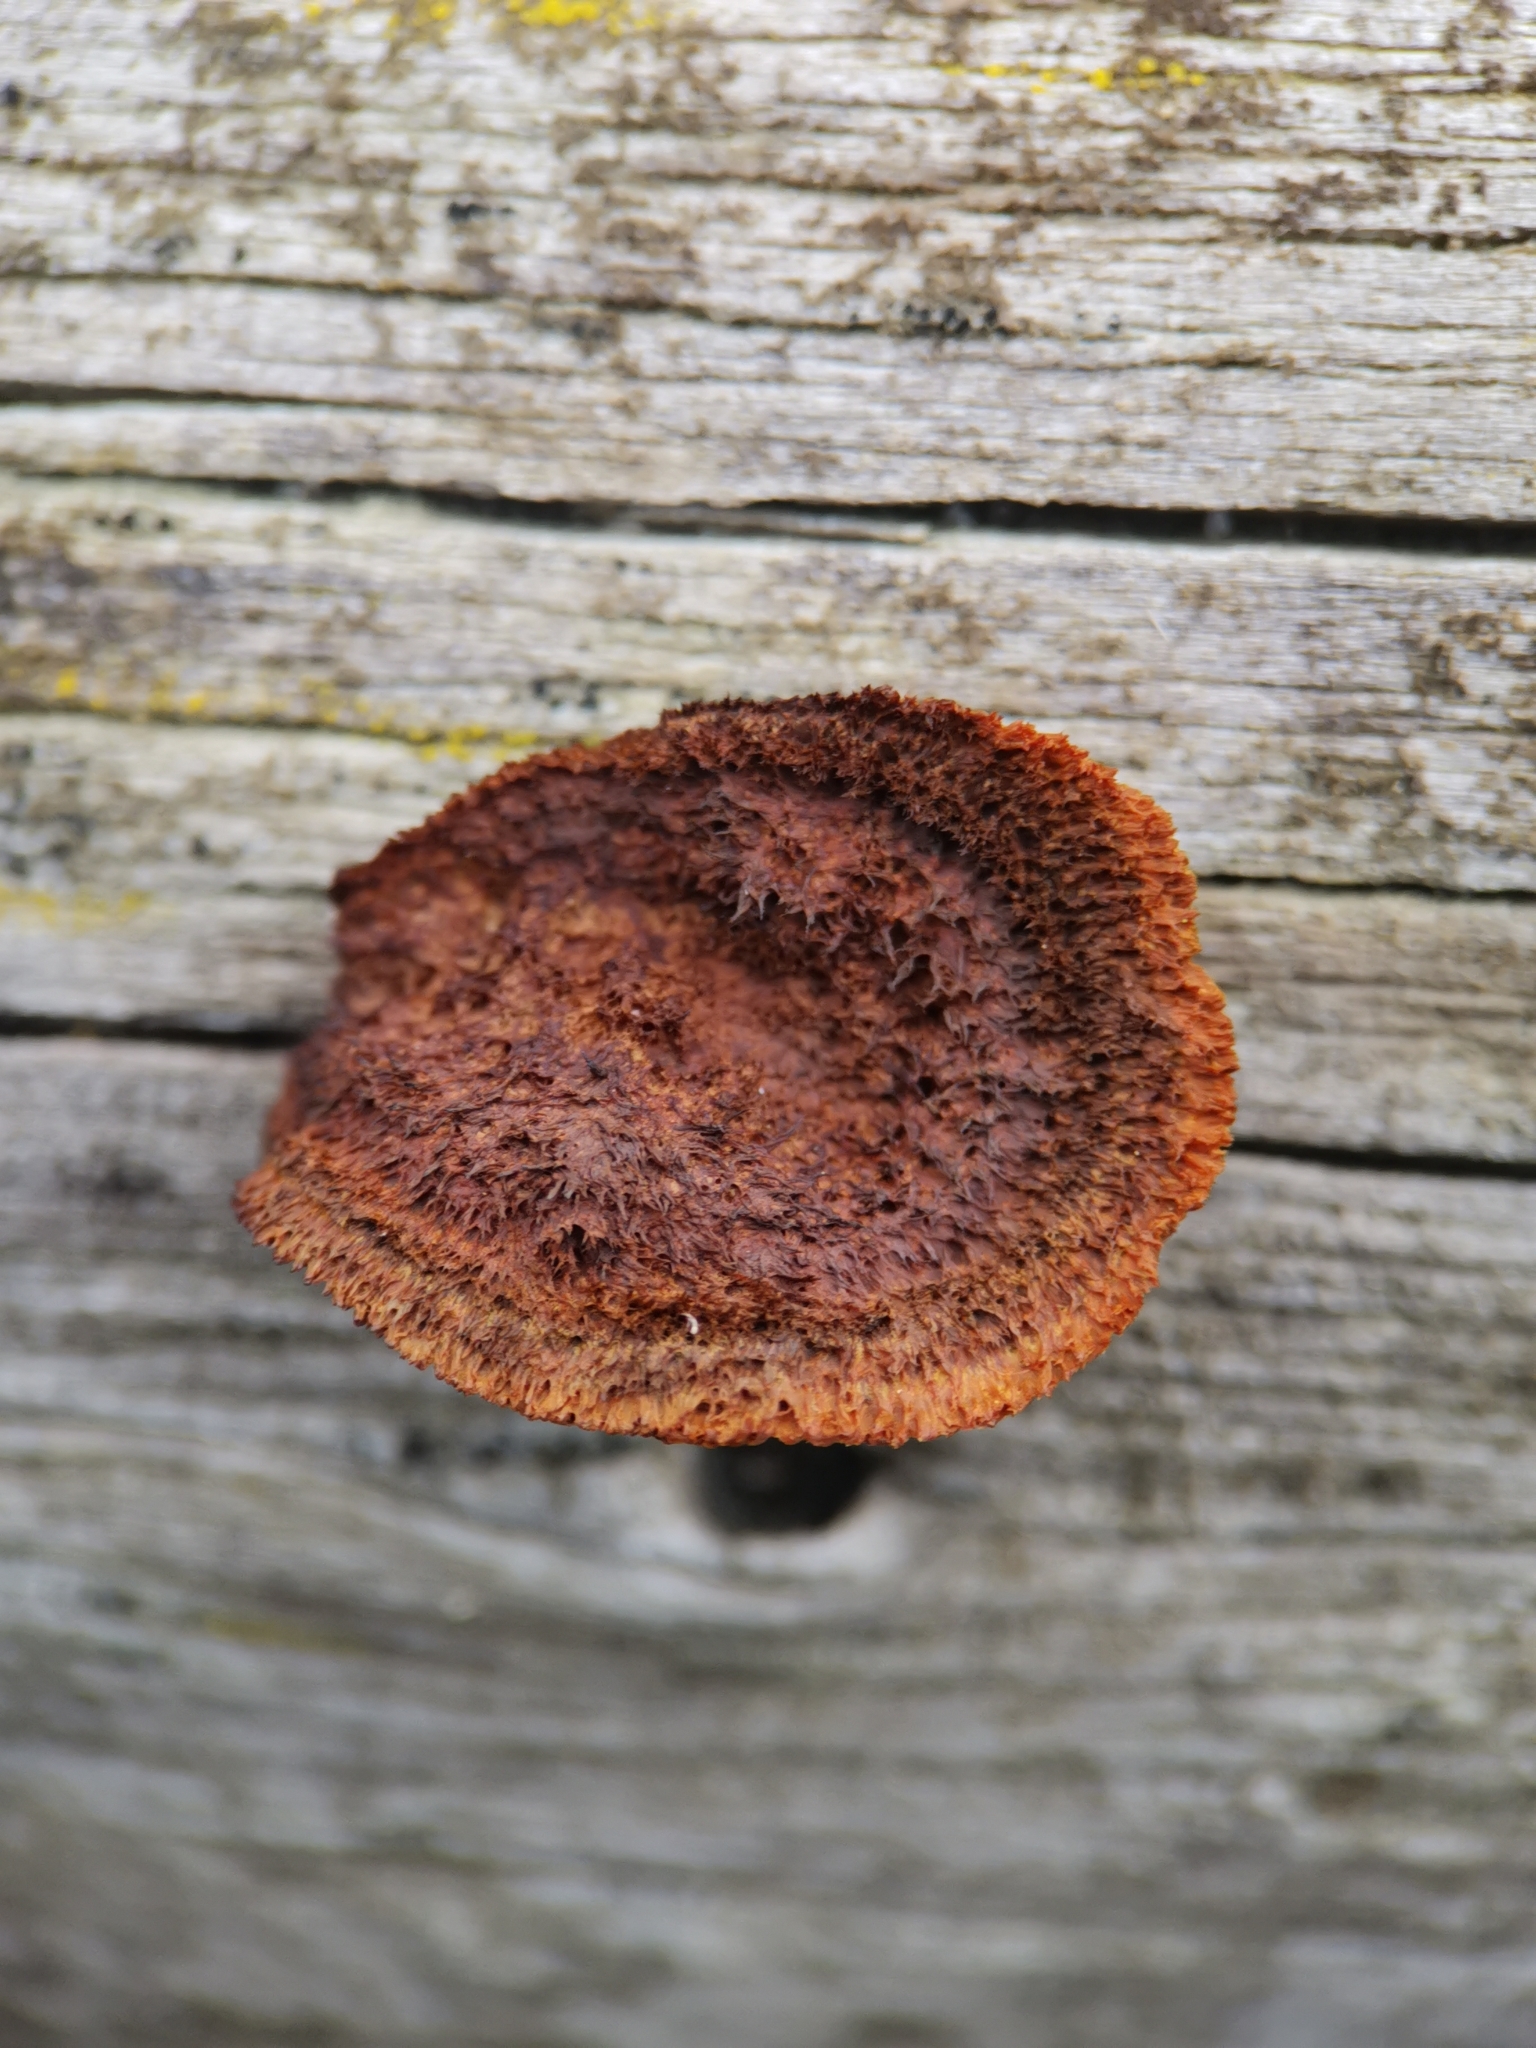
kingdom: Fungi
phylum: Basidiomycota
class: Agaricomycetes
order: Gloeophyllales
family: Gloeophyllaceae
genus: Gloeophyllum
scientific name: Gloeophyllum sepiarium
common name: Conifer mazegill
